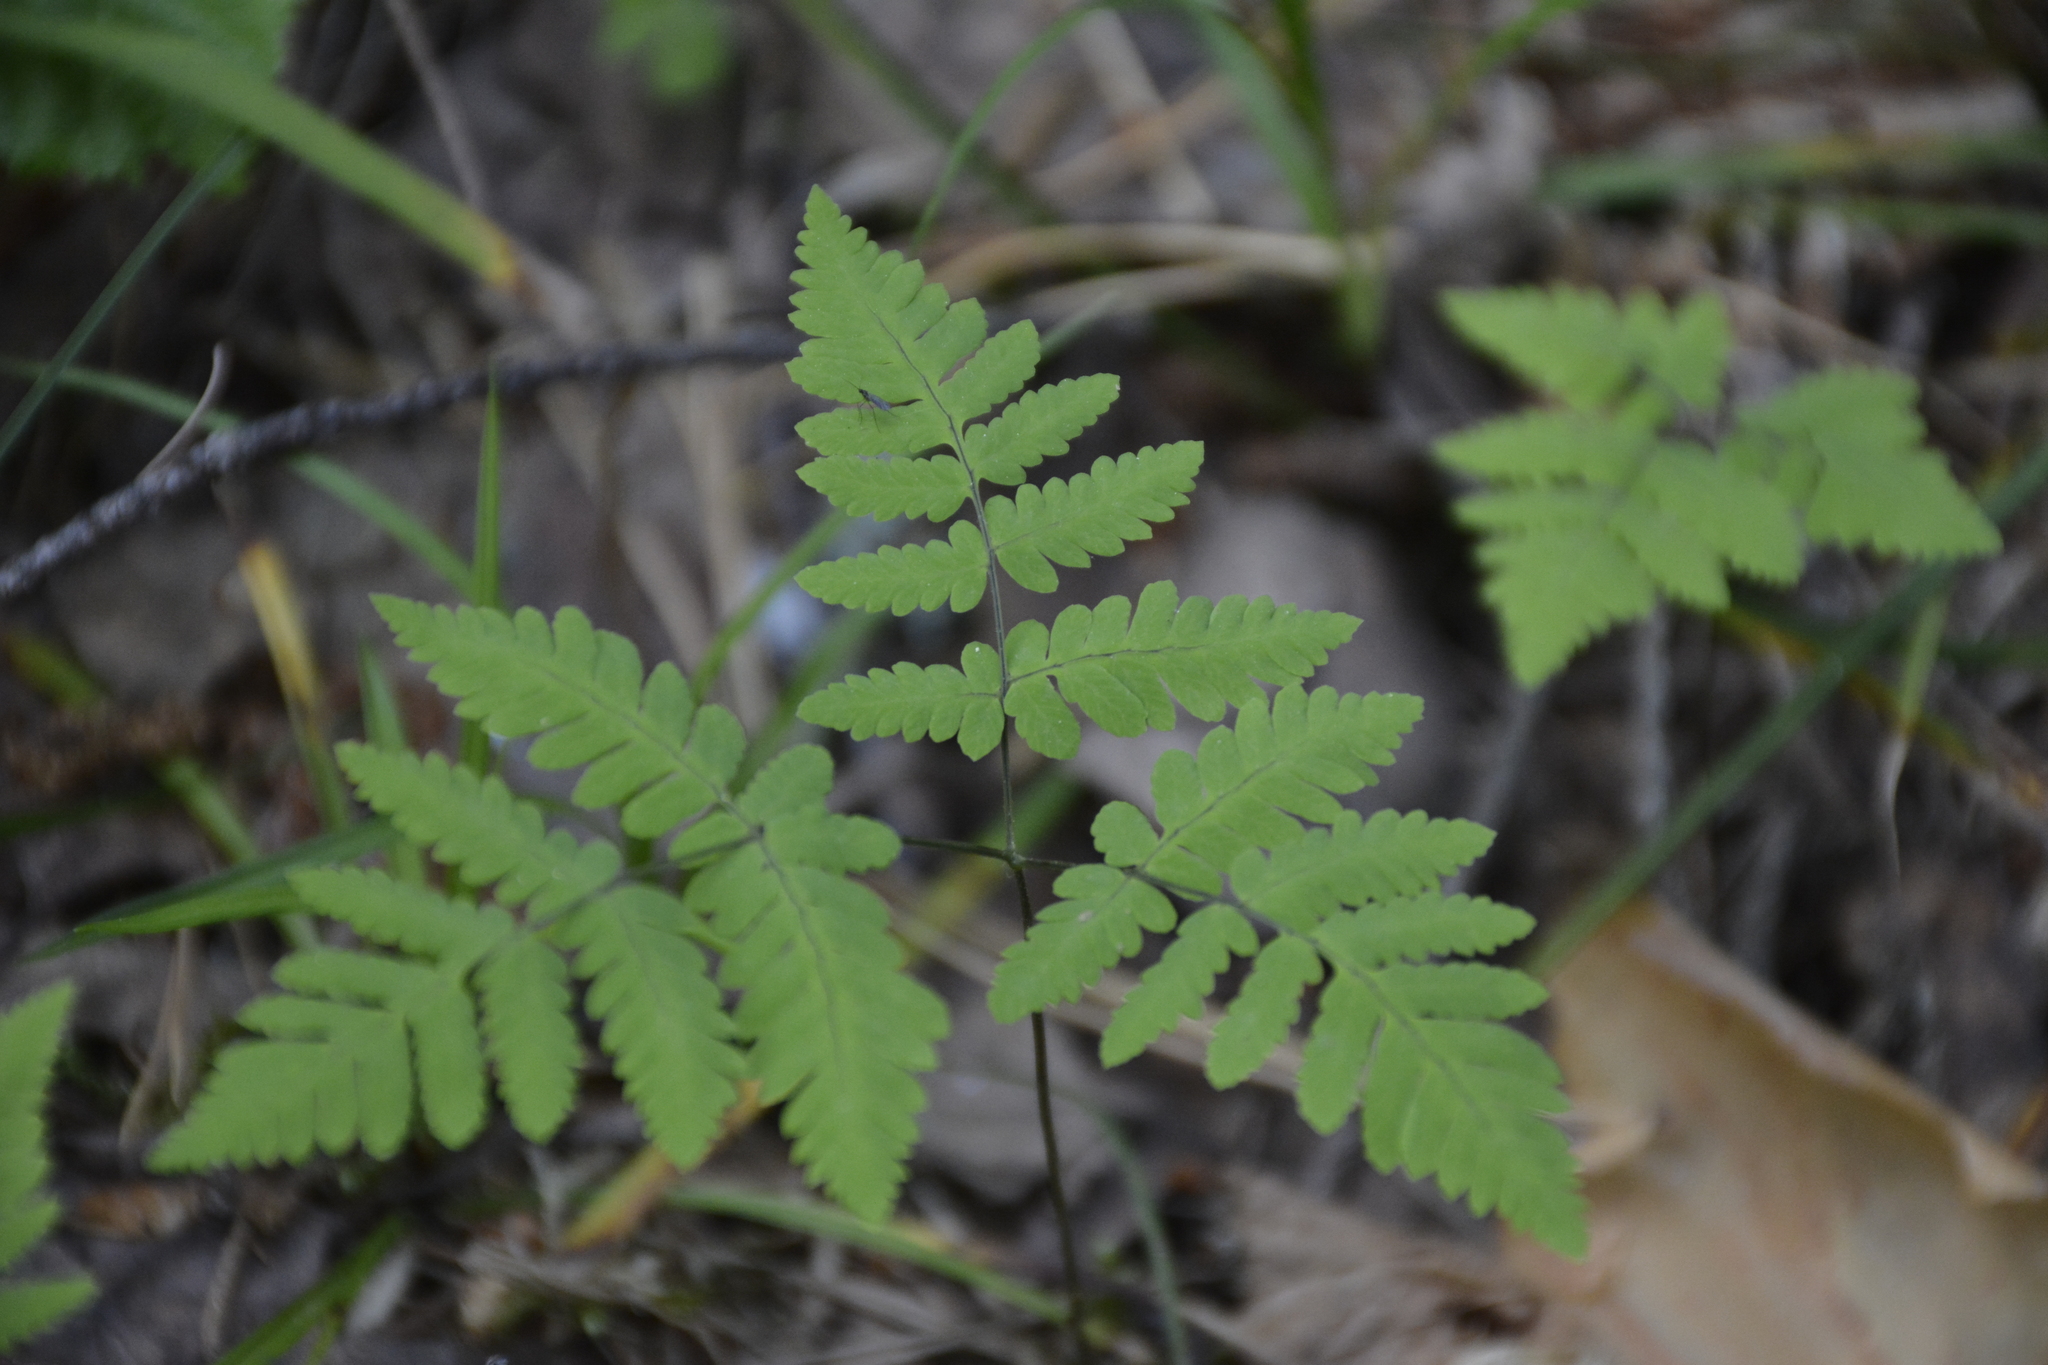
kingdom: Plantae
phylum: Tracheophyta
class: Polypodiopsida
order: Polypodiales
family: Cystopteridaceae
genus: Gymnocarpium
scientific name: Gymnocarpium dryopteris
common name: Oak fern
